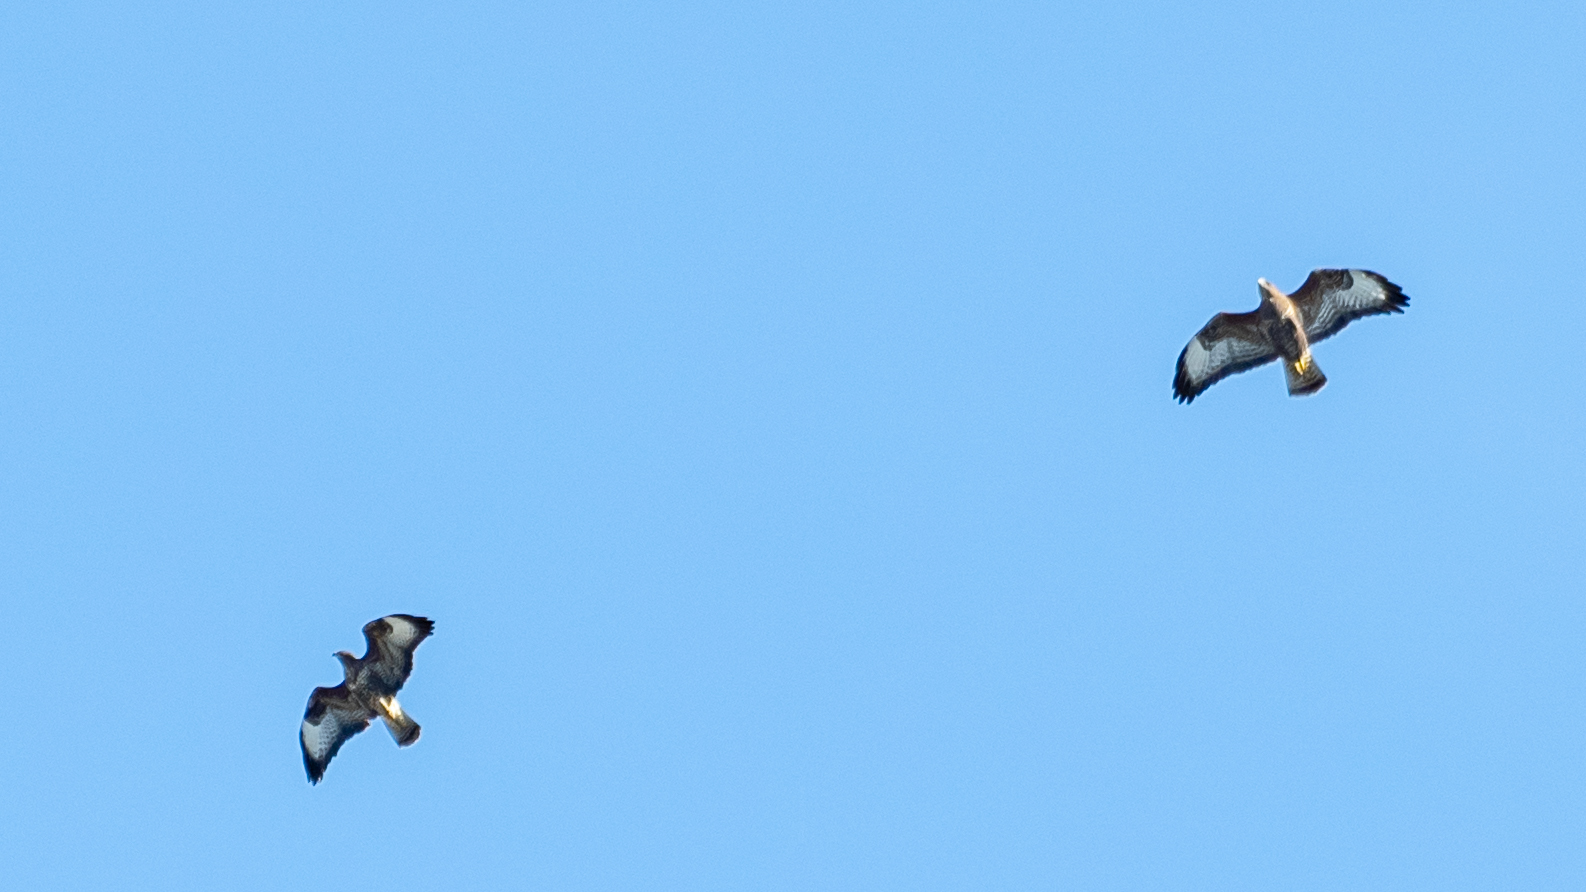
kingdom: Animalia
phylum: Chordata
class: Aves
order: Accipitriformes
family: Accipitridae
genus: Buteo
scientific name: Buteo buteo
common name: Common buzzard
